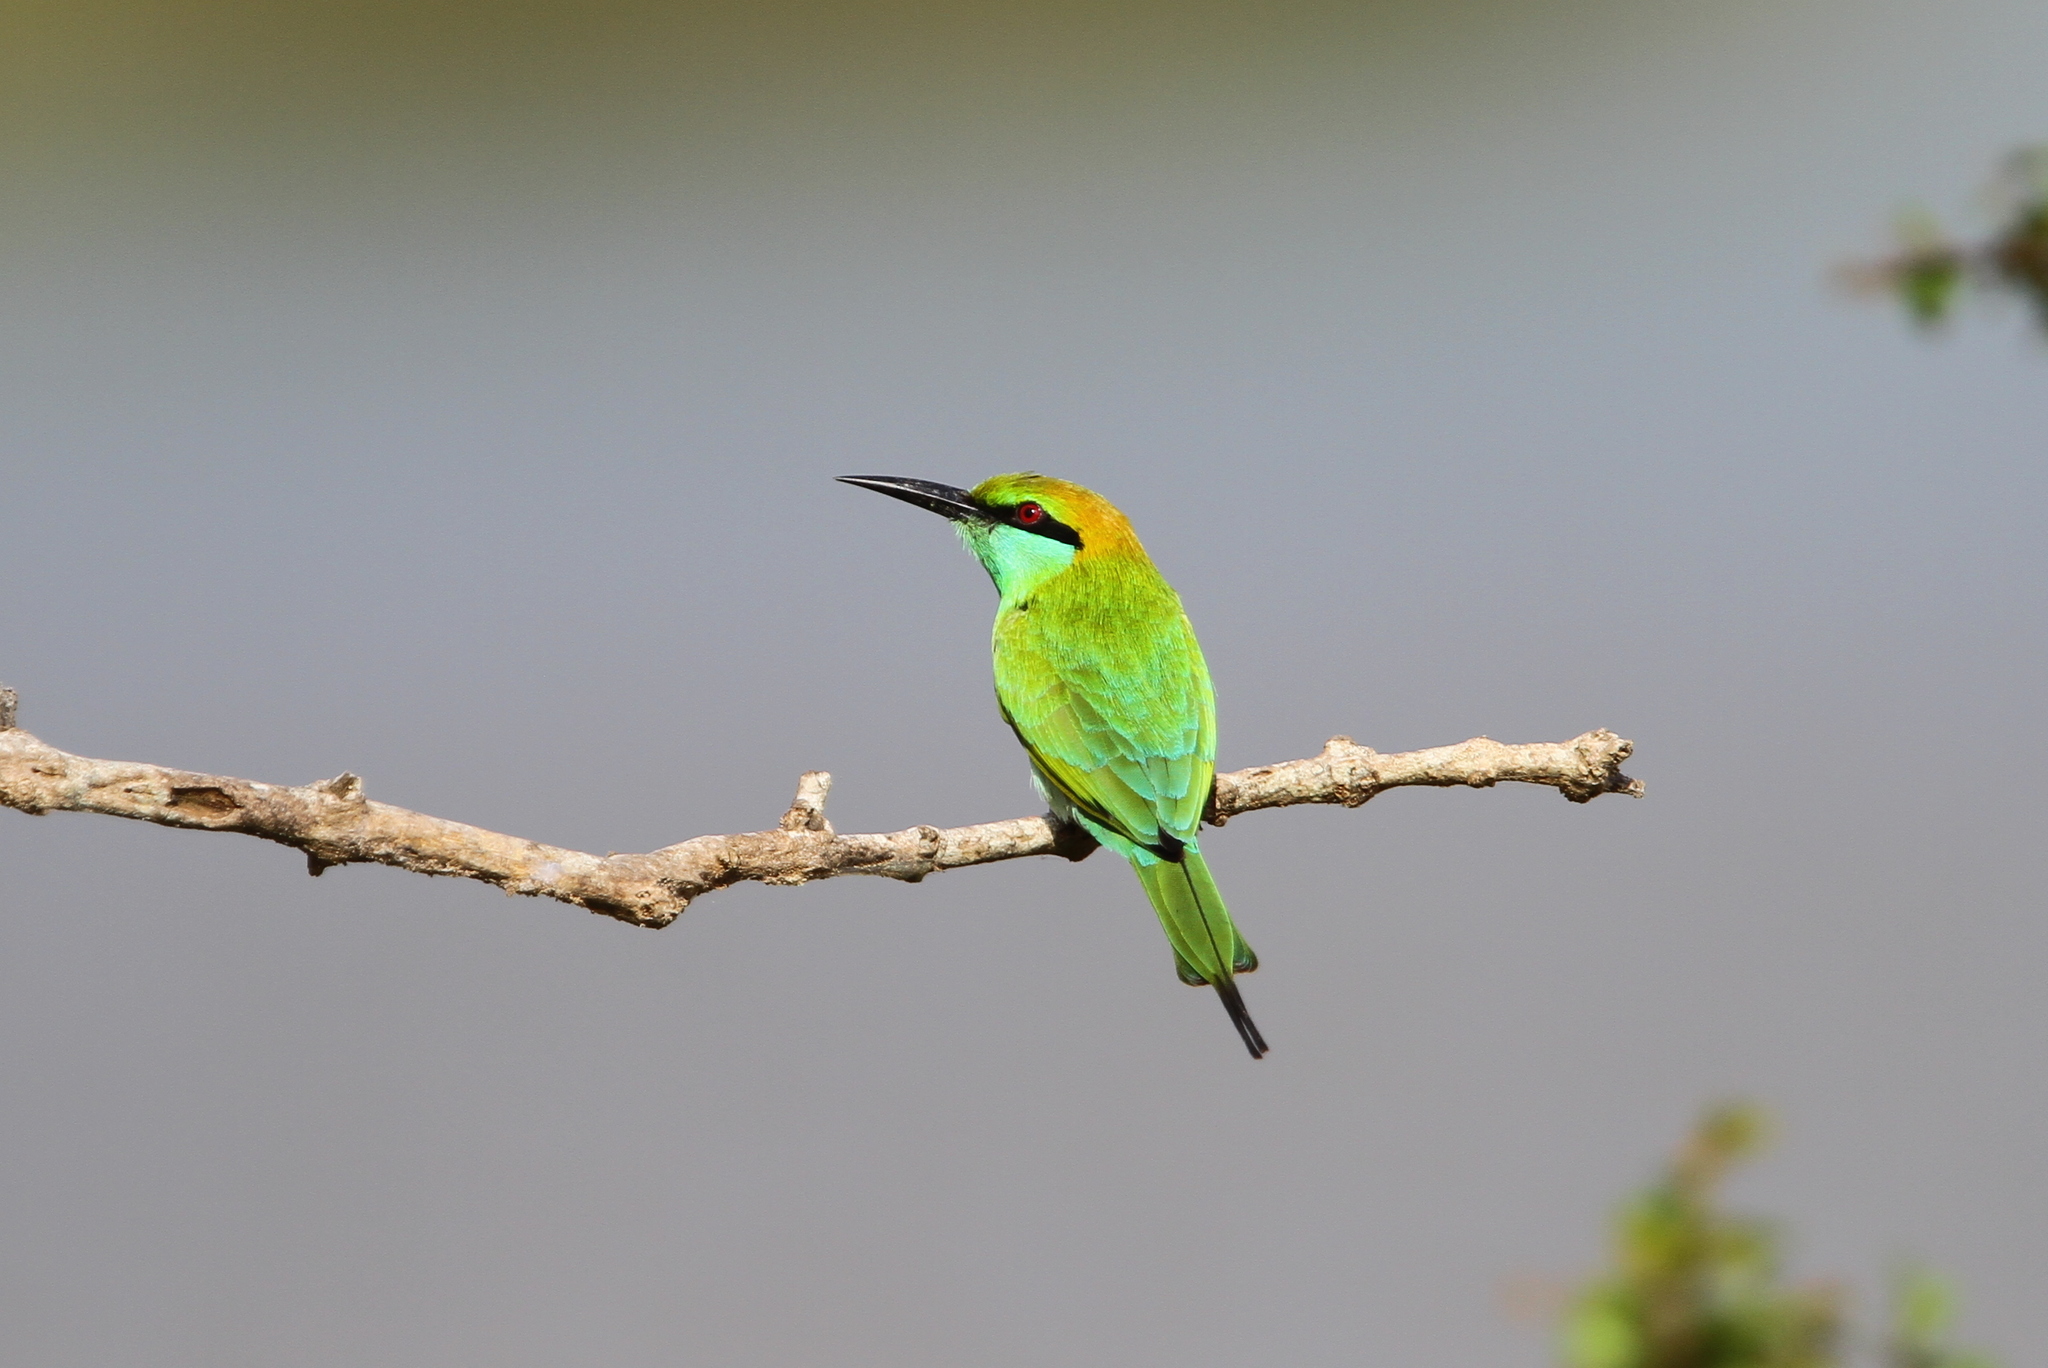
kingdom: Animalia
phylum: Chordata
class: Aves
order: Coraciiformes
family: Meropidae
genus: Merops
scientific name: Merops orientalis
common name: Green bee-eater
